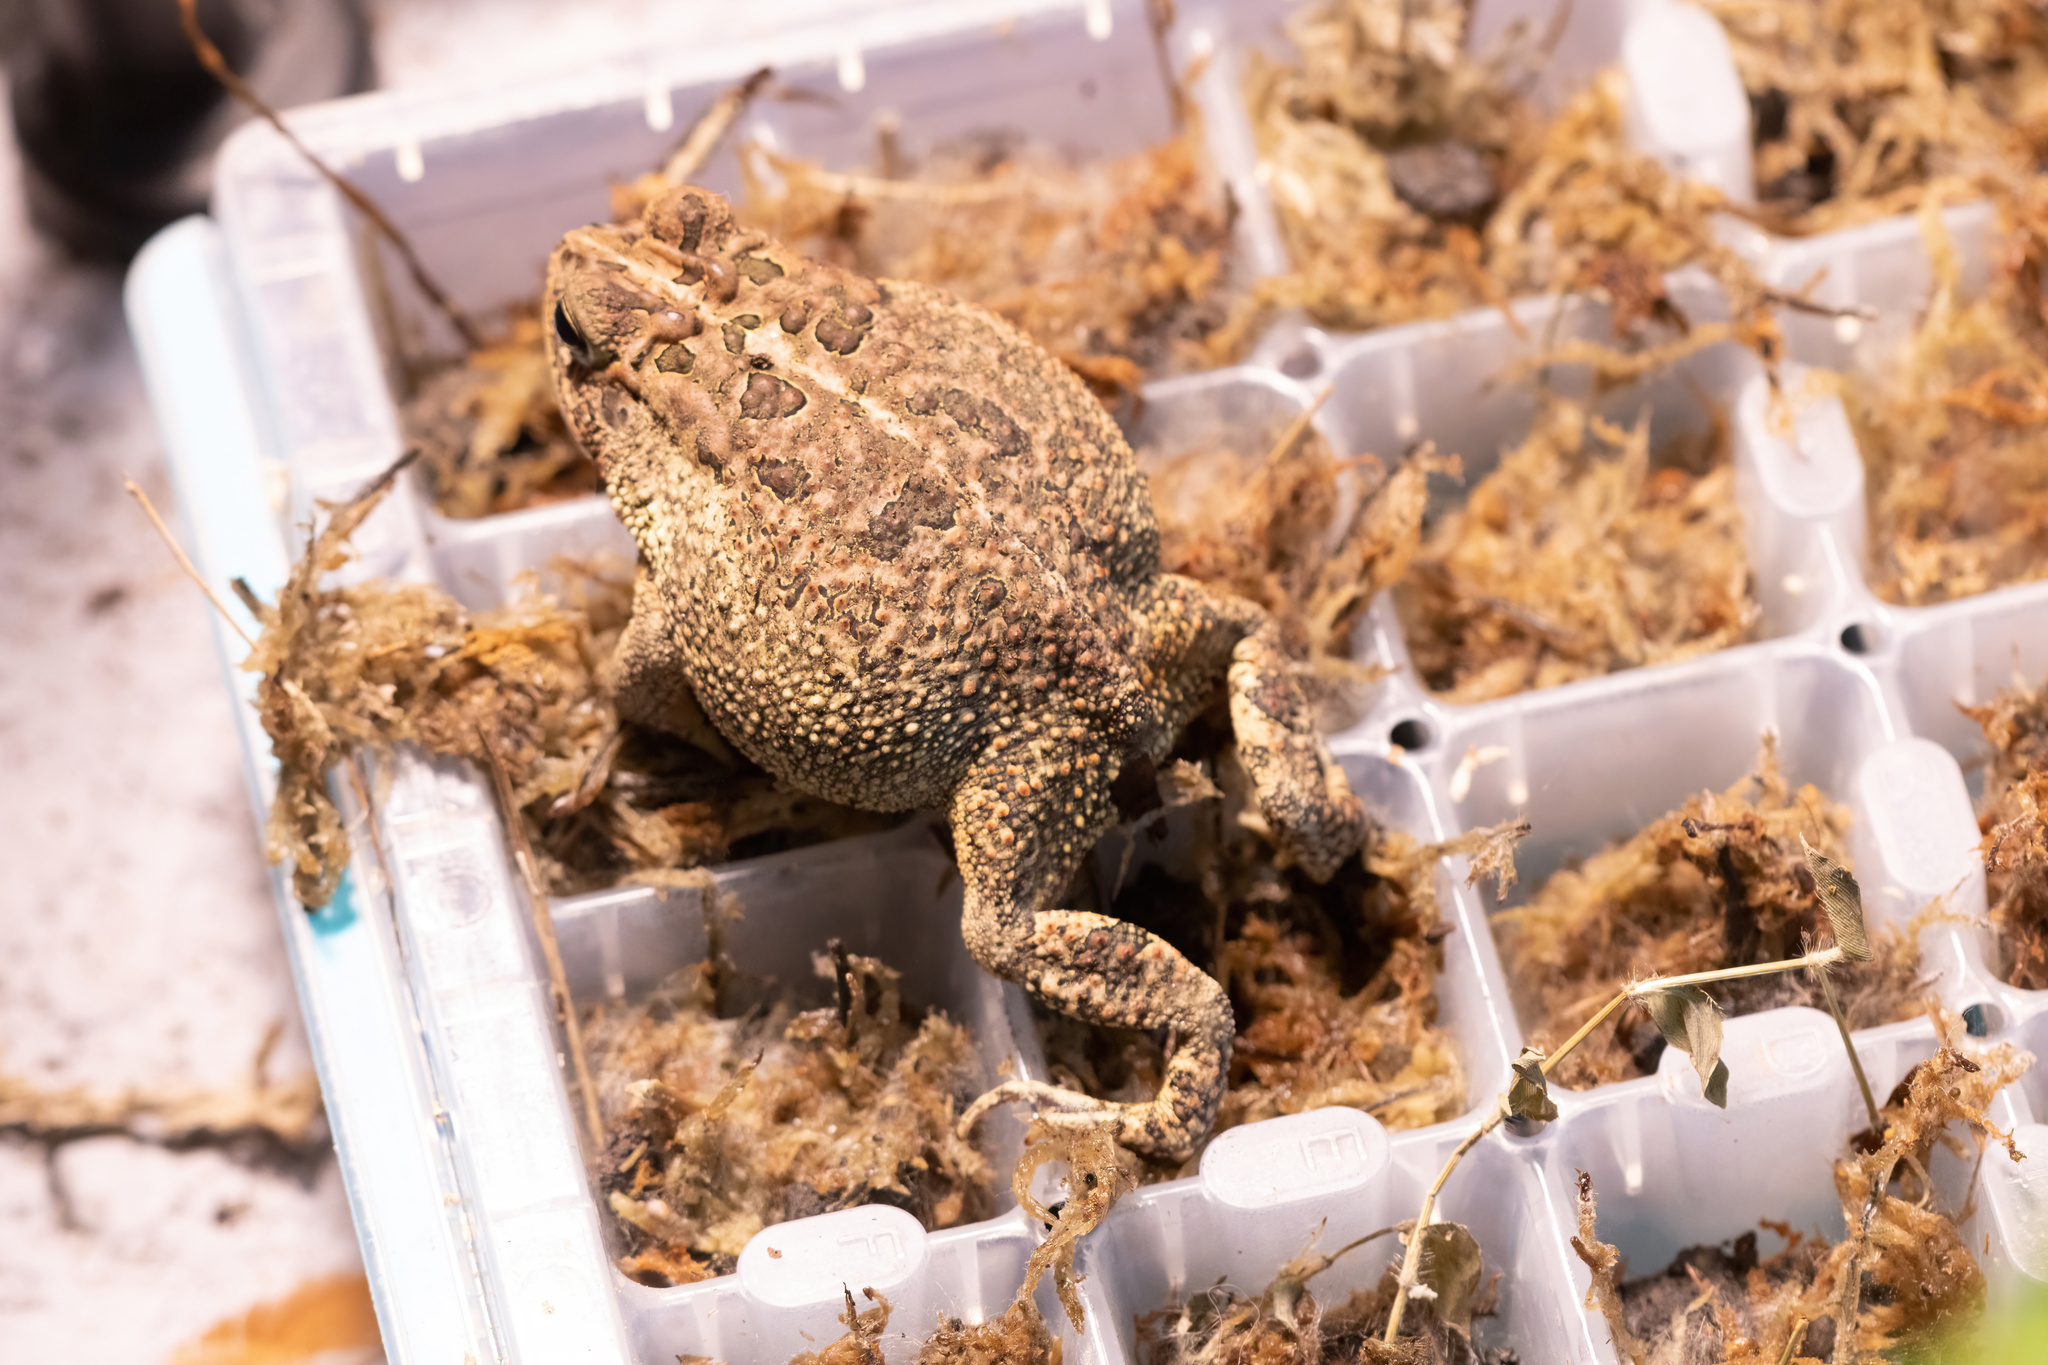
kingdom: Animalia
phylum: Chordata
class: Amphibia
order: Anura
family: Bufonidae
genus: Anaxyrus
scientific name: Anaxyrus terrestris
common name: Southern toad
